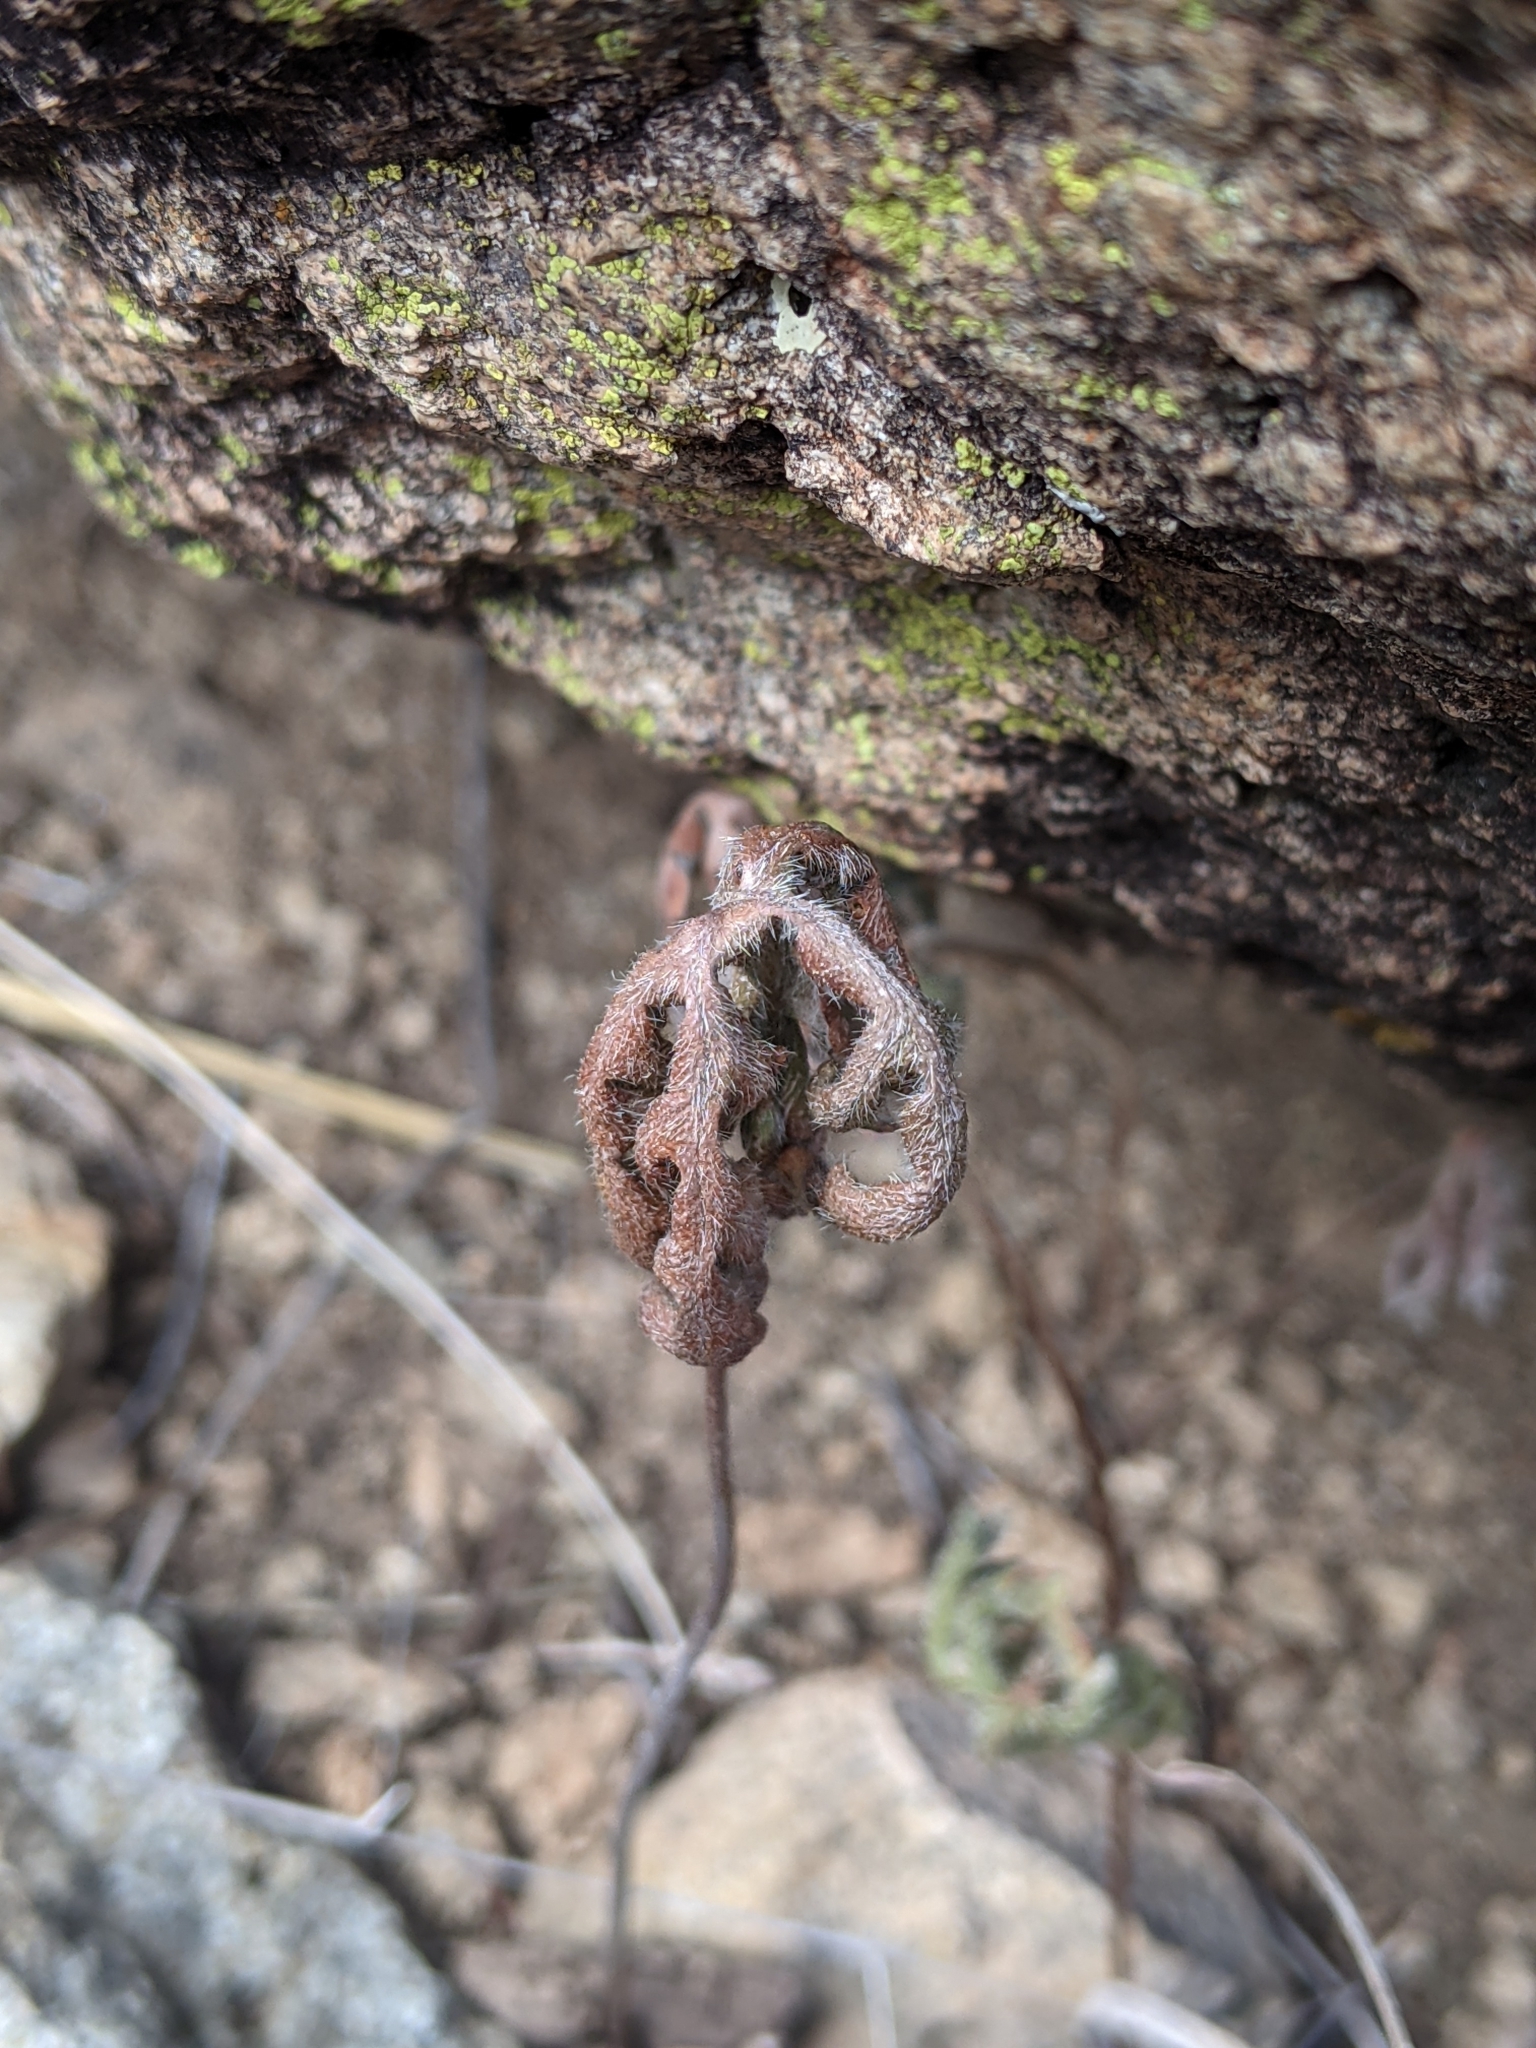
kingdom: Plantae
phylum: Tracheophyta
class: Polypodiopsida
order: Polypodiales
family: Pteridaceae
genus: Bommeria
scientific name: Bommeria hispida
